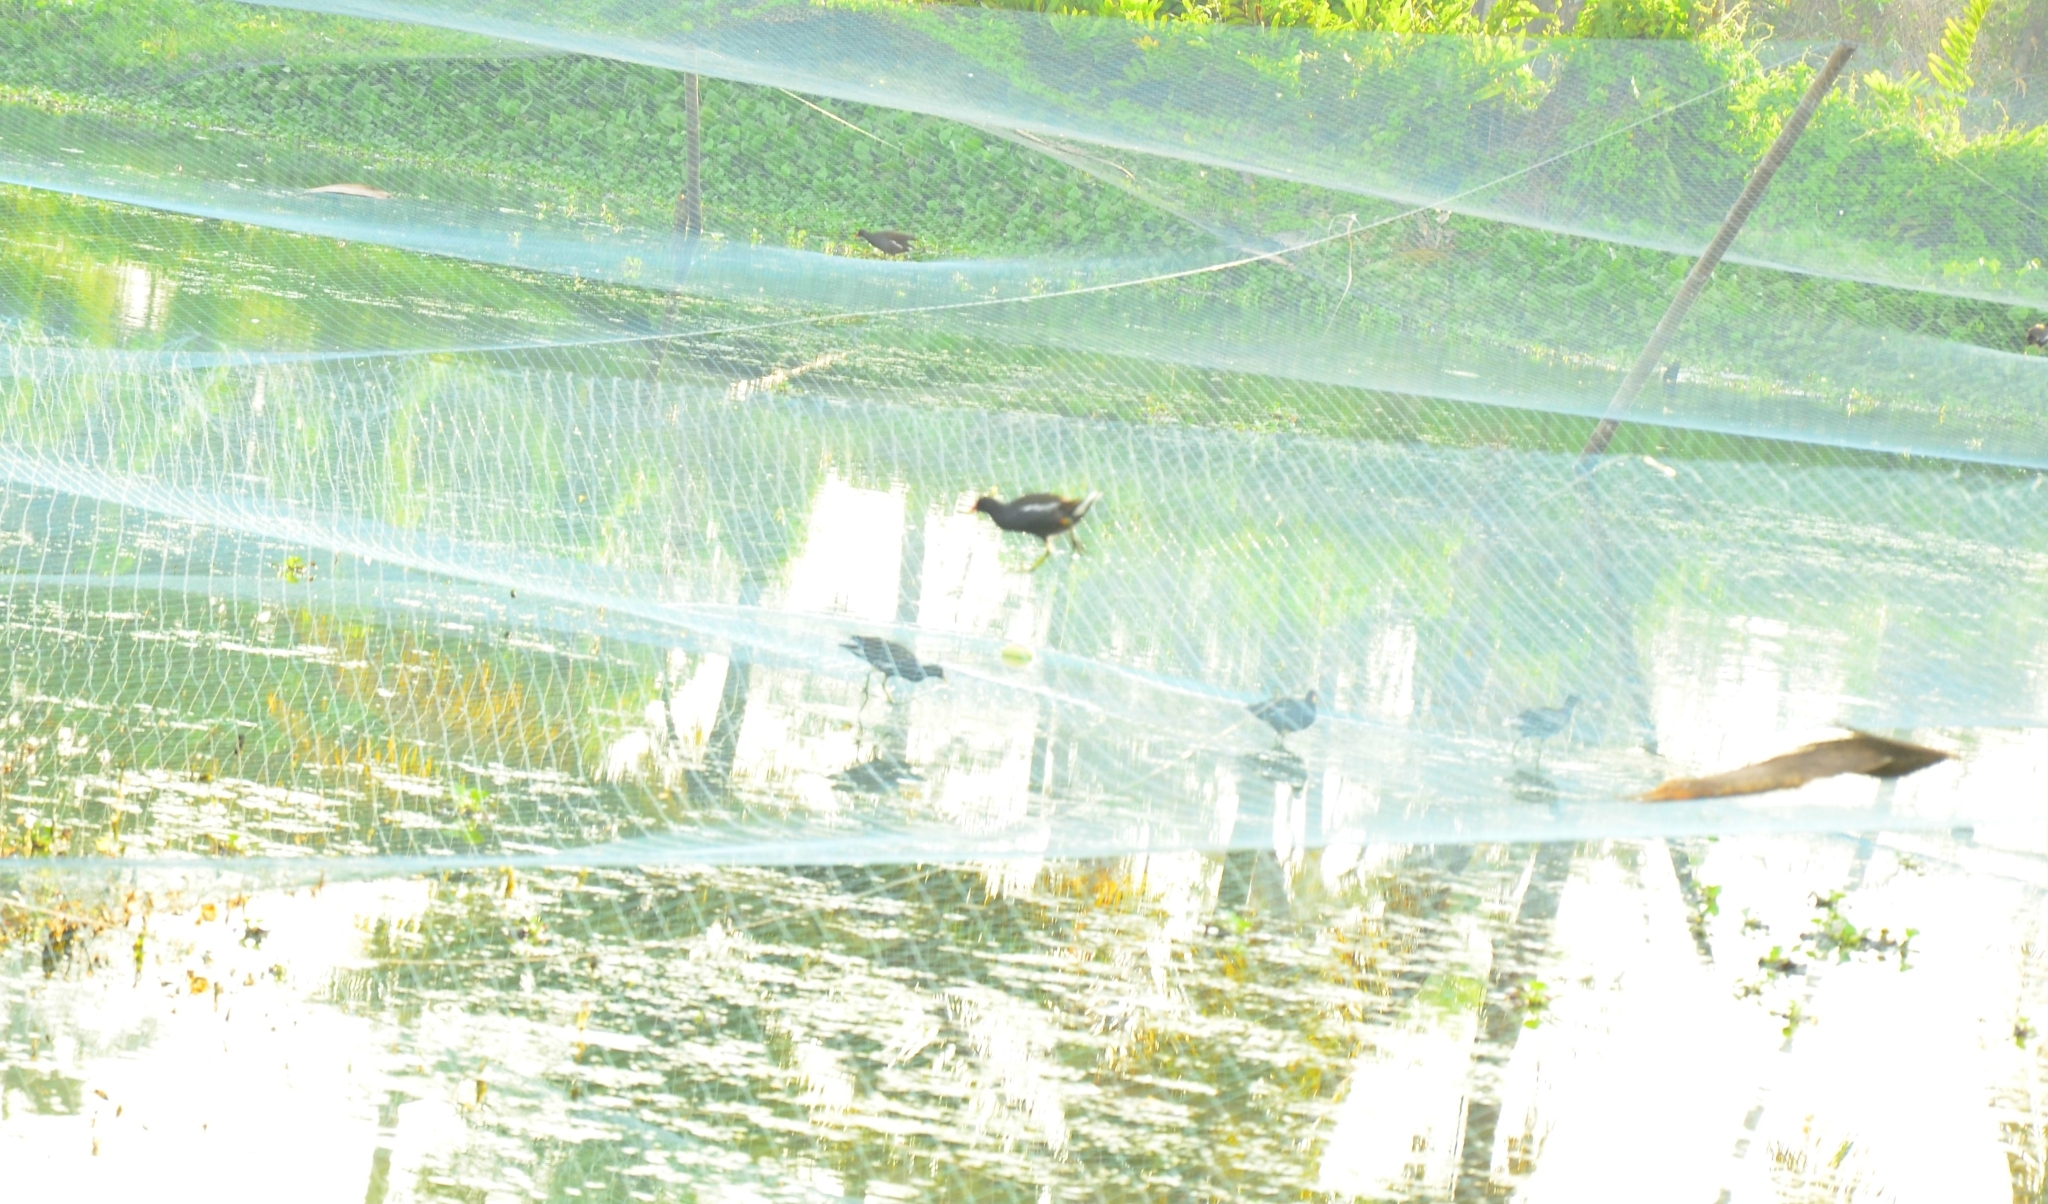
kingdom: Animalia
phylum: Chordata
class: Aves
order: Gruiformes
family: Rallidae
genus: Gallinula
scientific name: Gallinula chloropus
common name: Common moorhen
